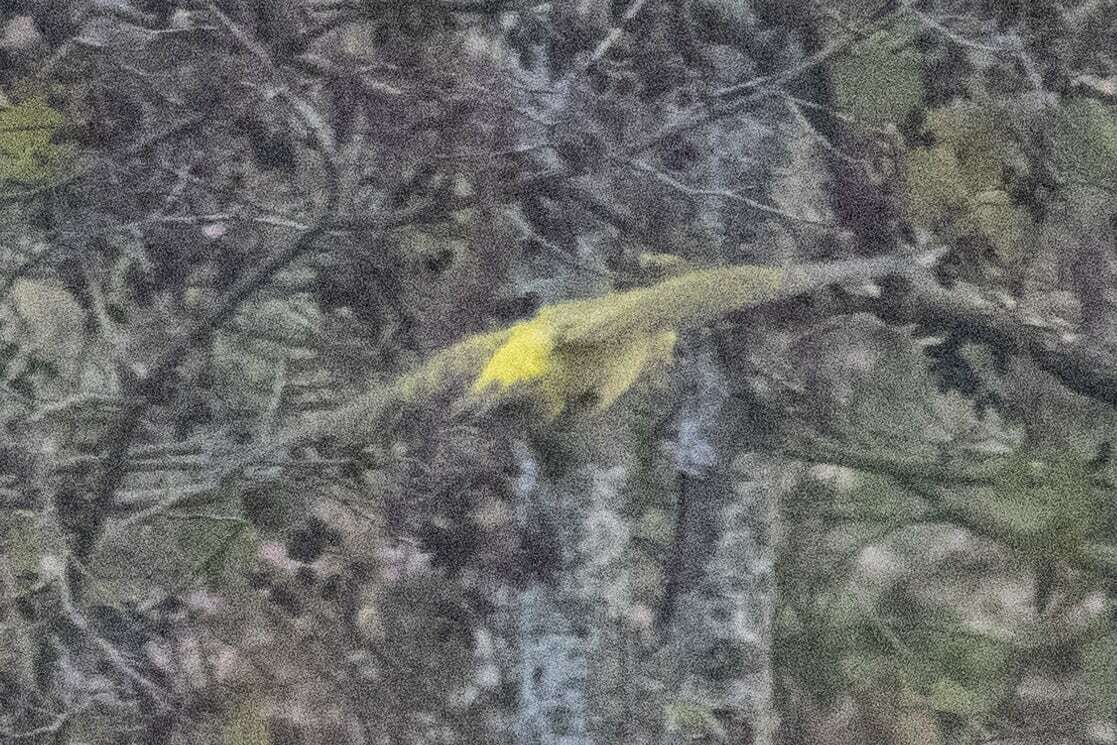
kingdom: Animalia
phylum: Chordata
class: Aves
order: Piciformes
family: Picidae
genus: Picus
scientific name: Picus viridis
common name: European green woodpecker
